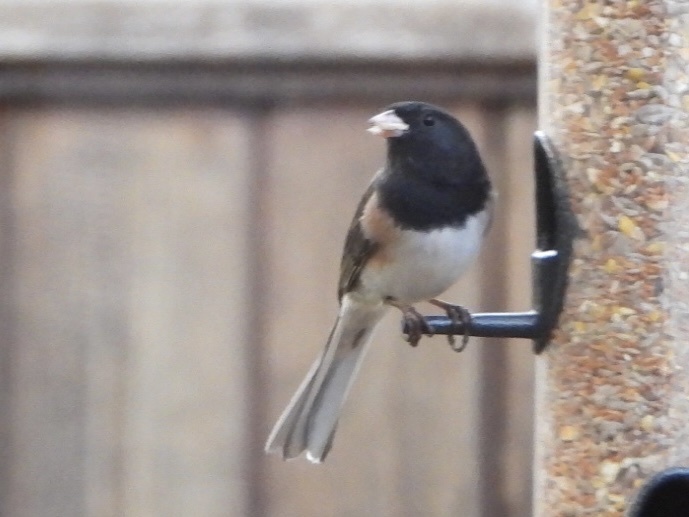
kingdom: Animalia
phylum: Chordata
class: Aves
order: Passeriformes
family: Passerellidae
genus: Junco
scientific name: Junco hyemalis
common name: Dark-eyed junco
